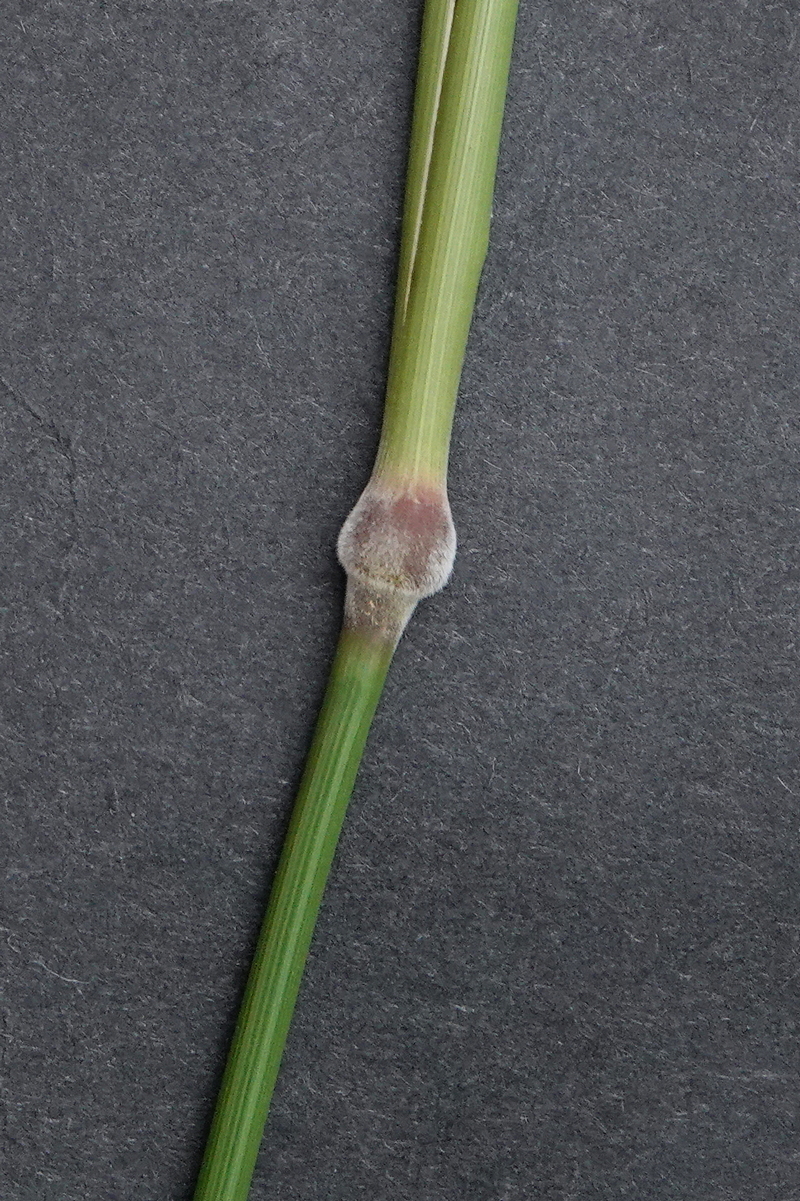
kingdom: Plantae
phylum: Tracheophyta
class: Liliopsida
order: Poales
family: Poaceae
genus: Austrostipa
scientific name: Austrostipa
